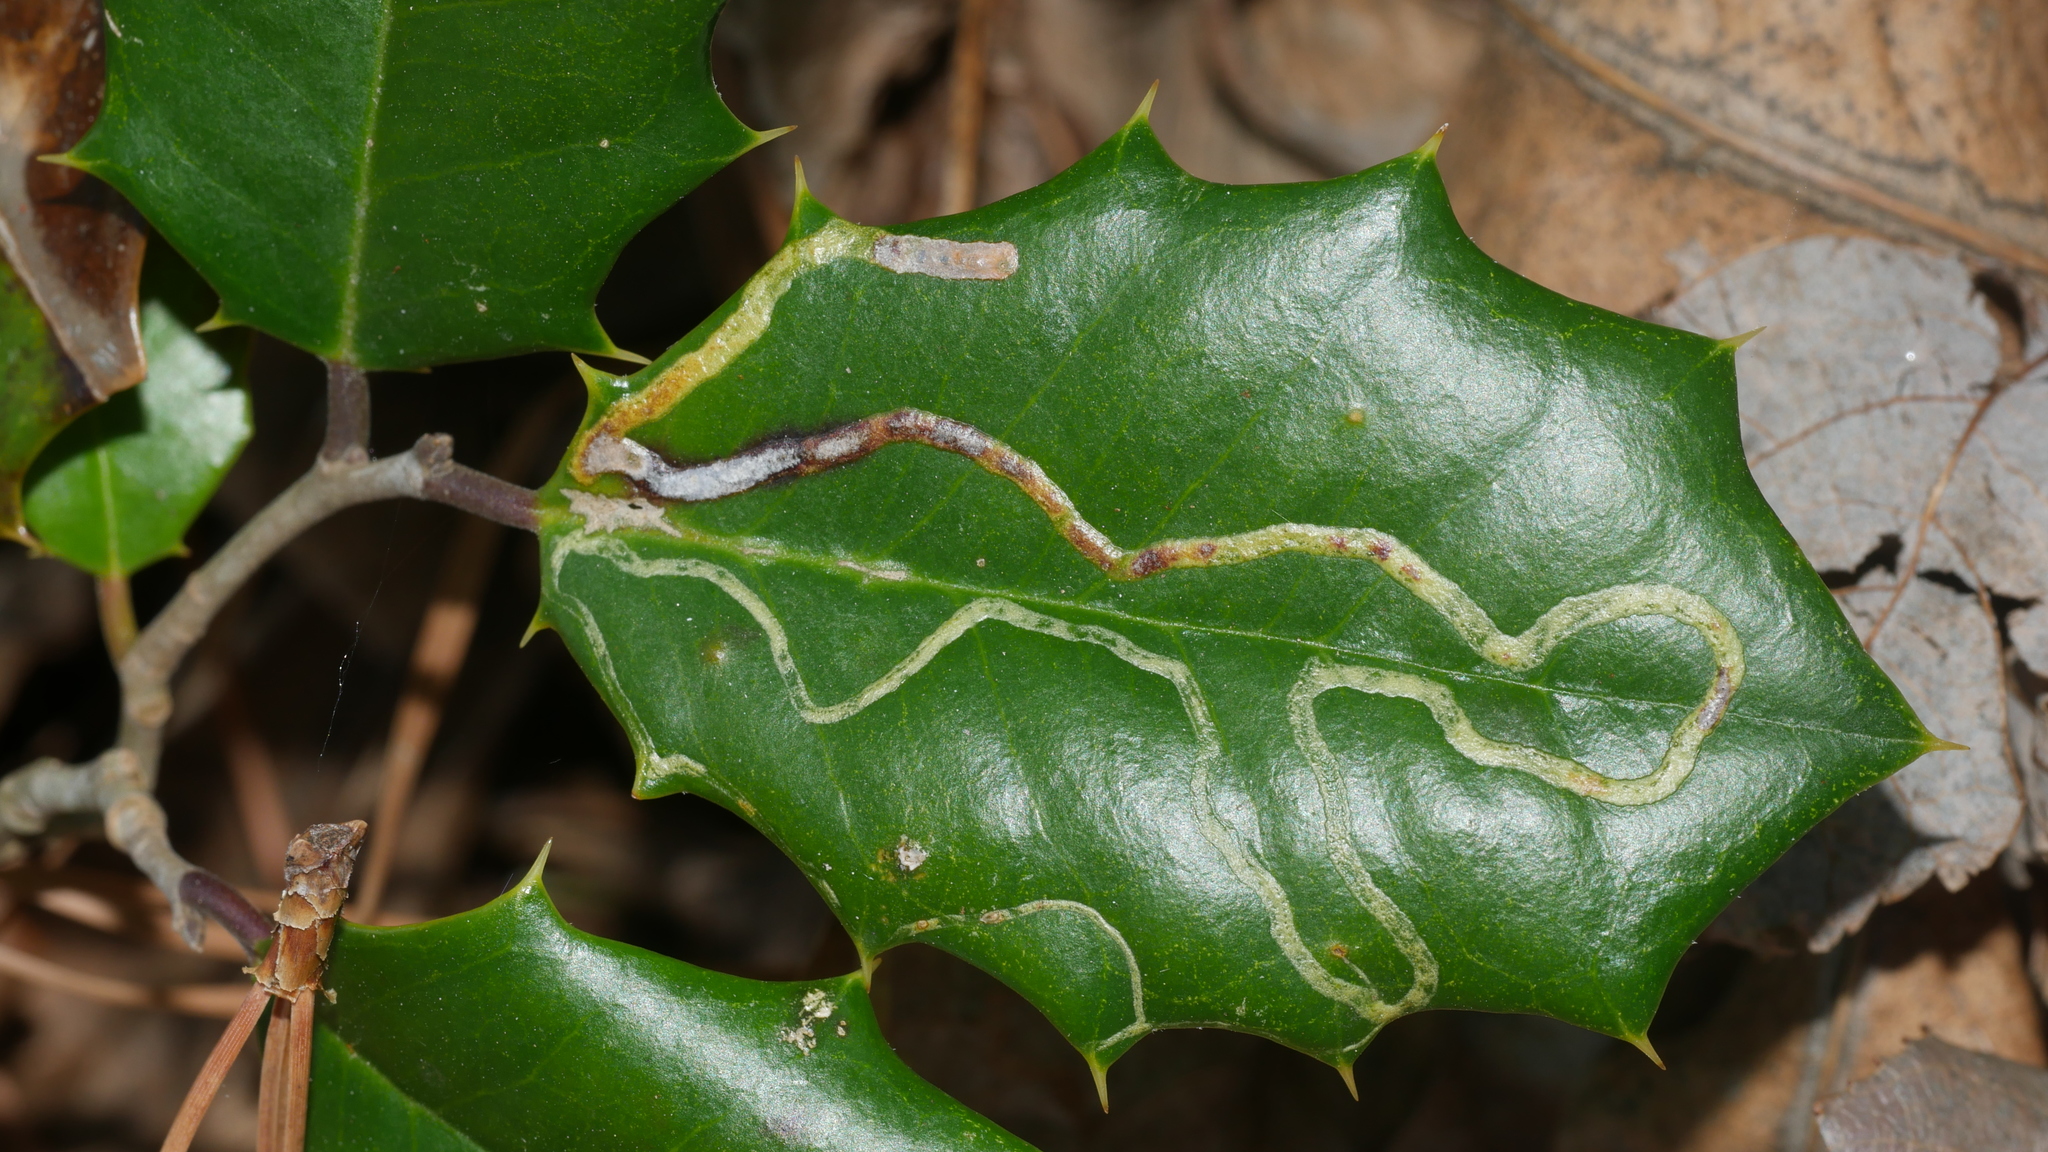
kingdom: Animalia
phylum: Arthropoda
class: Insecta
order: Diptera
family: Agromyzidae
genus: Phytomyza
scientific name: Phytomyza opacae
